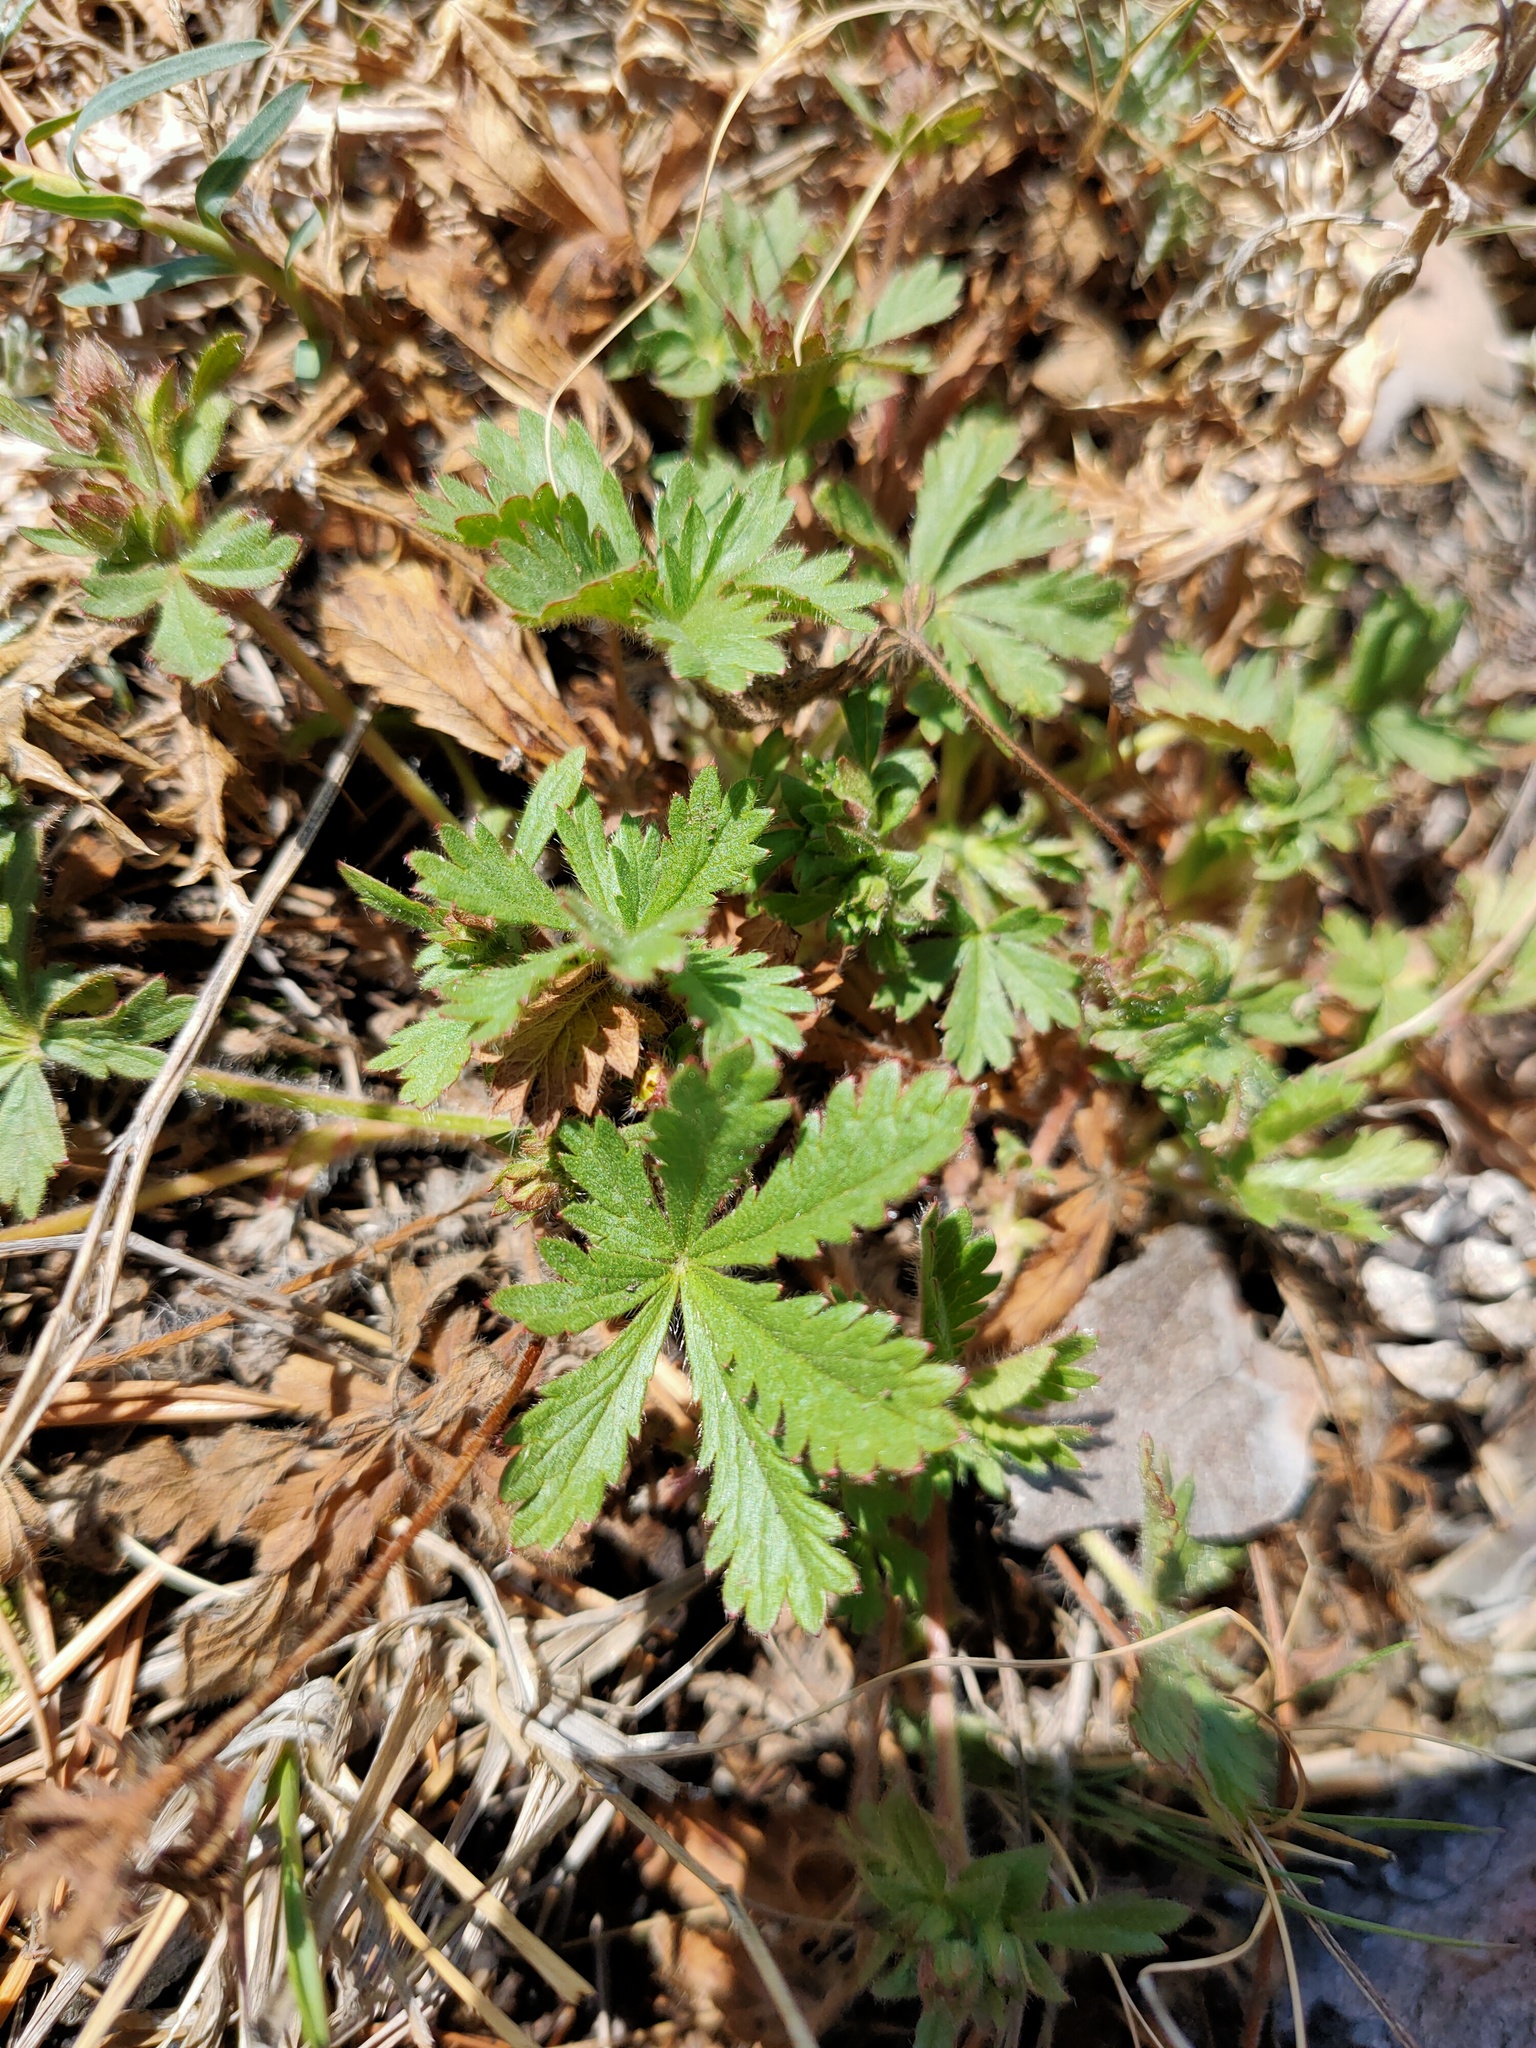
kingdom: Plantae
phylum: Tracheophyta
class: Magnoliopsida
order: Rosales
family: Rosaceae
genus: Potentilla
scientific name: Potentilla humifusa
